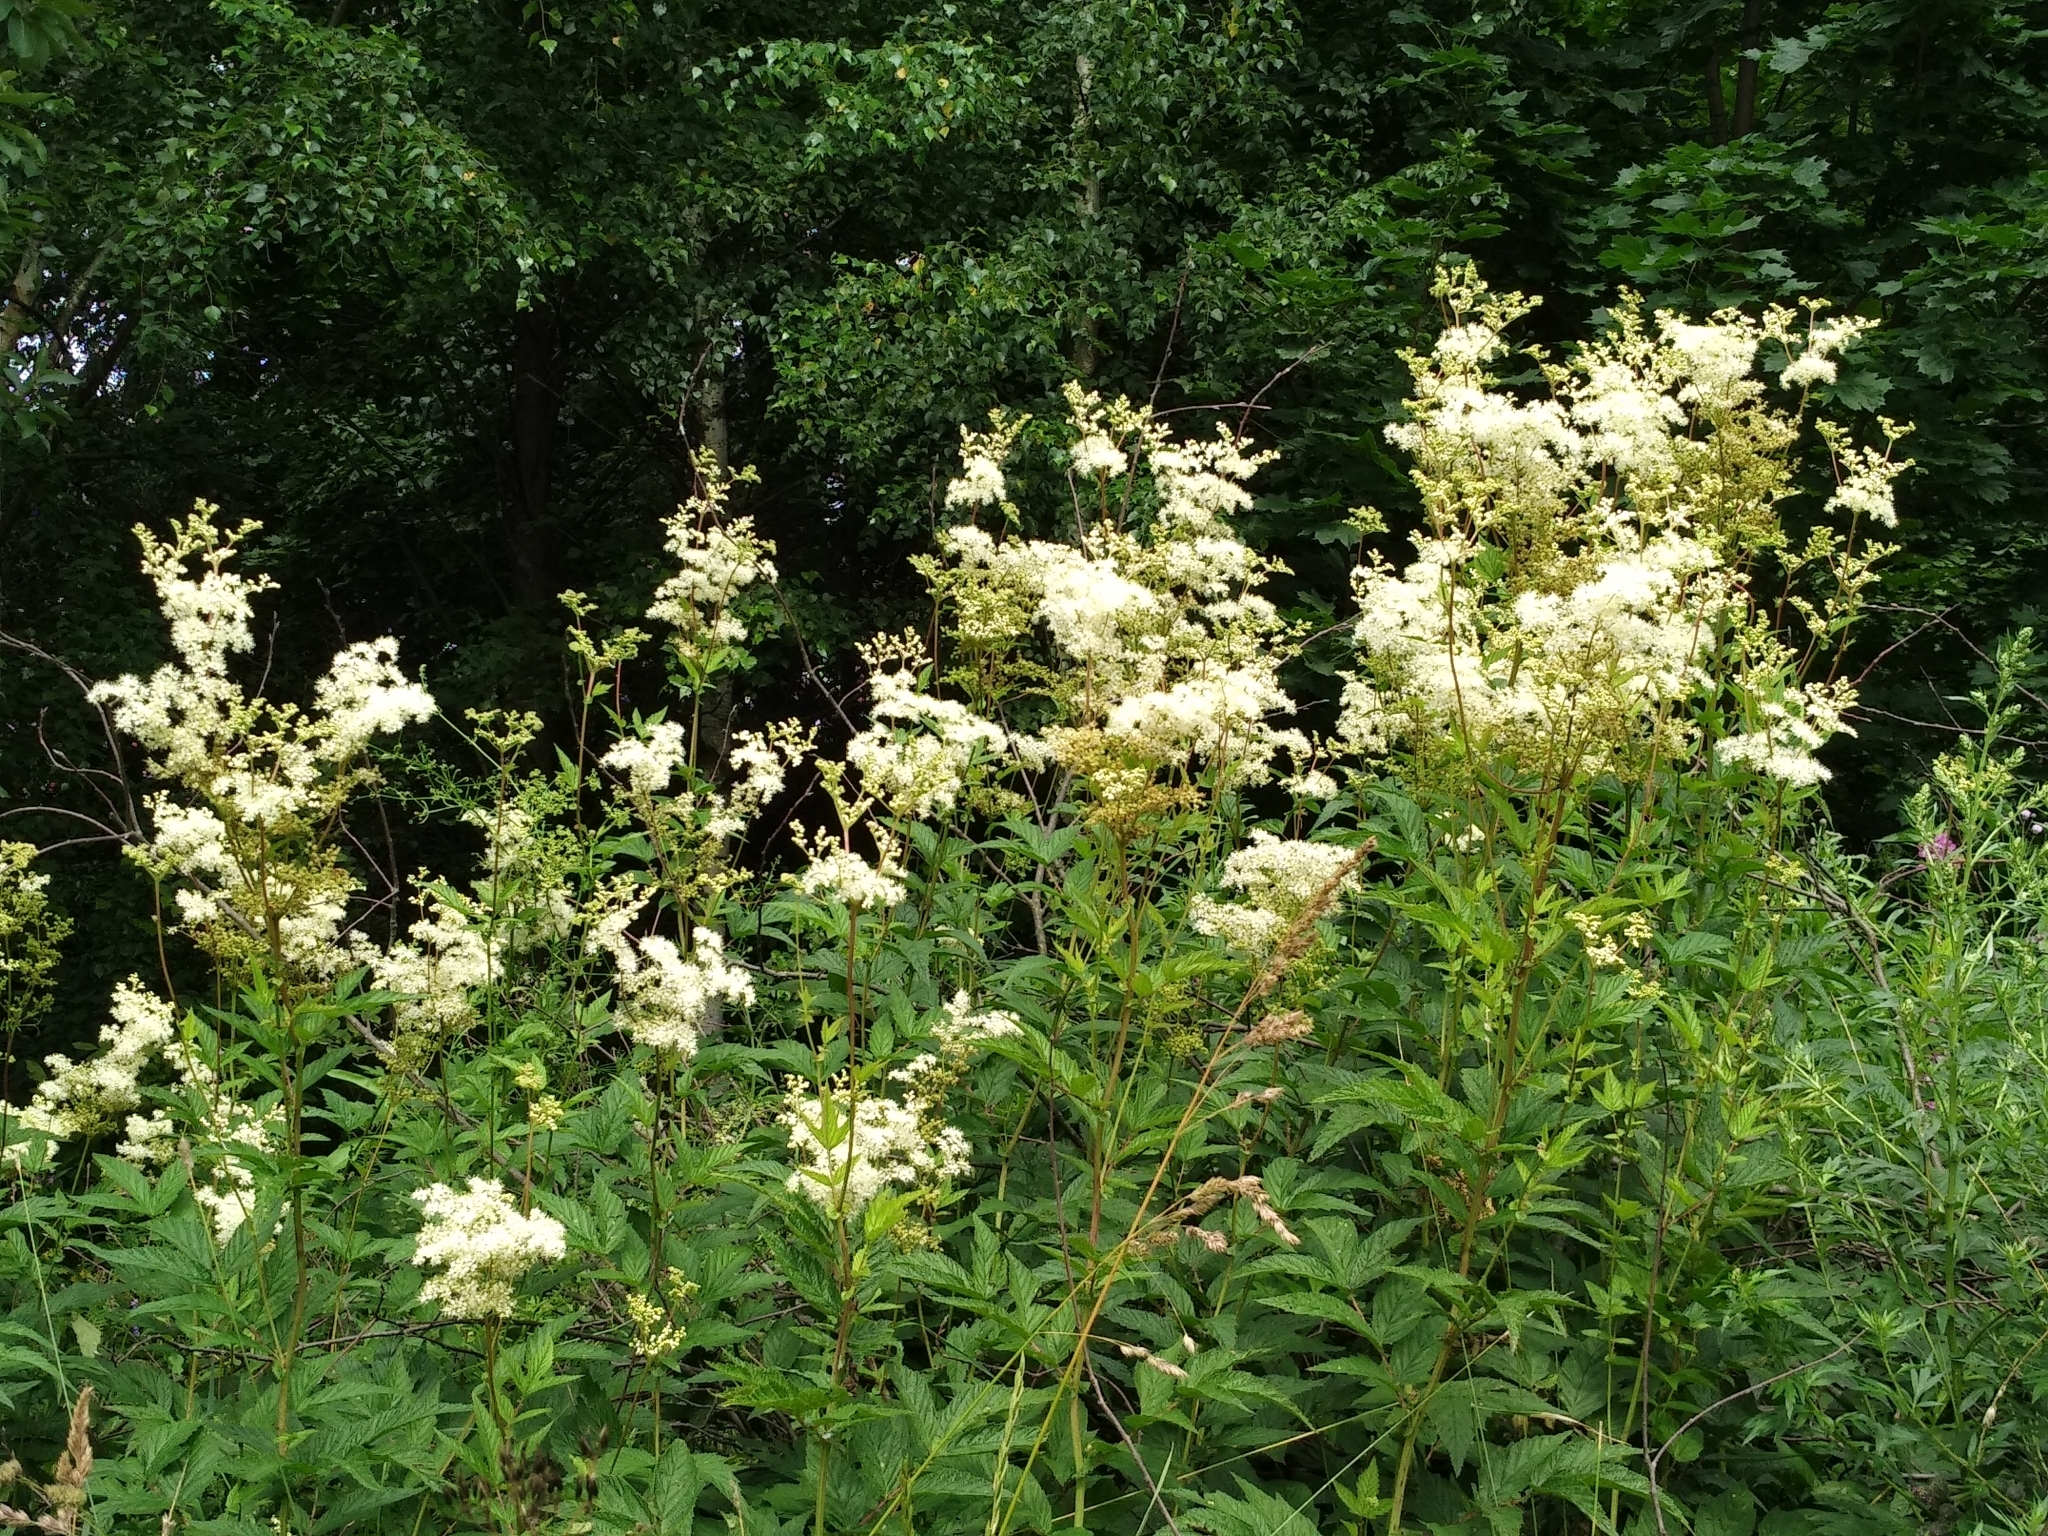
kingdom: Plantae
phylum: Tracheophyta
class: Magnoliopsida
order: Rosales
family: Rosaceae
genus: Filipendula
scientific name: Filipendula ulmaria
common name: Meadowsweet
